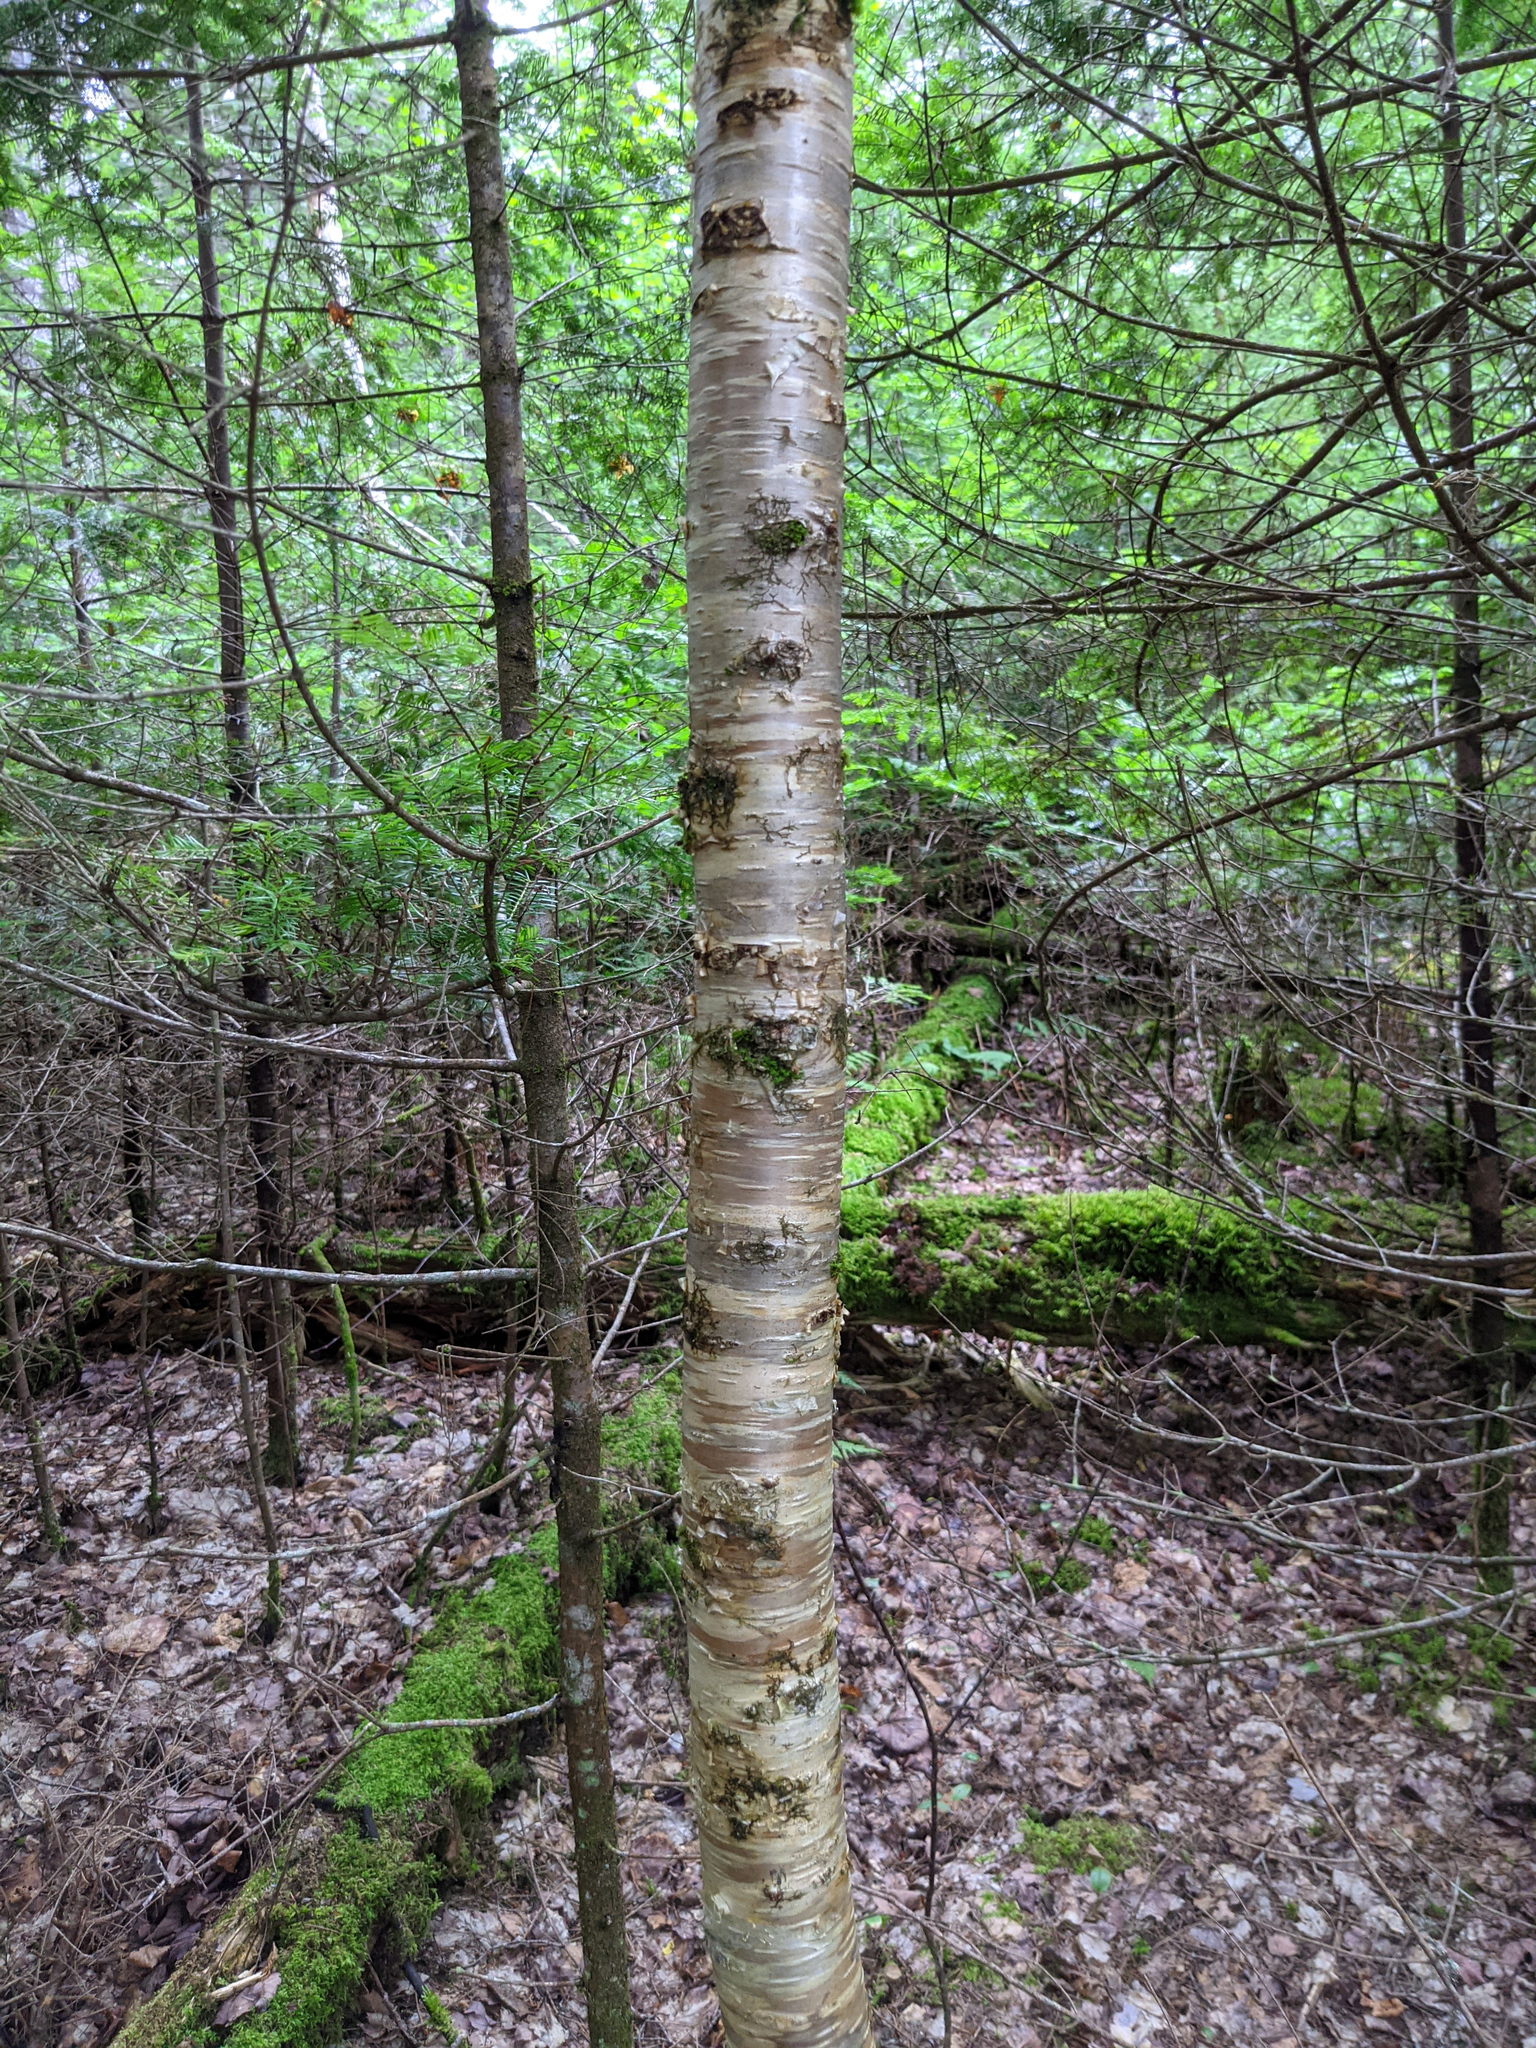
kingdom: Plantae
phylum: Tracheophyta
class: Magnoliopsida
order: Fagales
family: Betulaceae
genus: Betula
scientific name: Betula alleghaniensis
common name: Yellow birch
